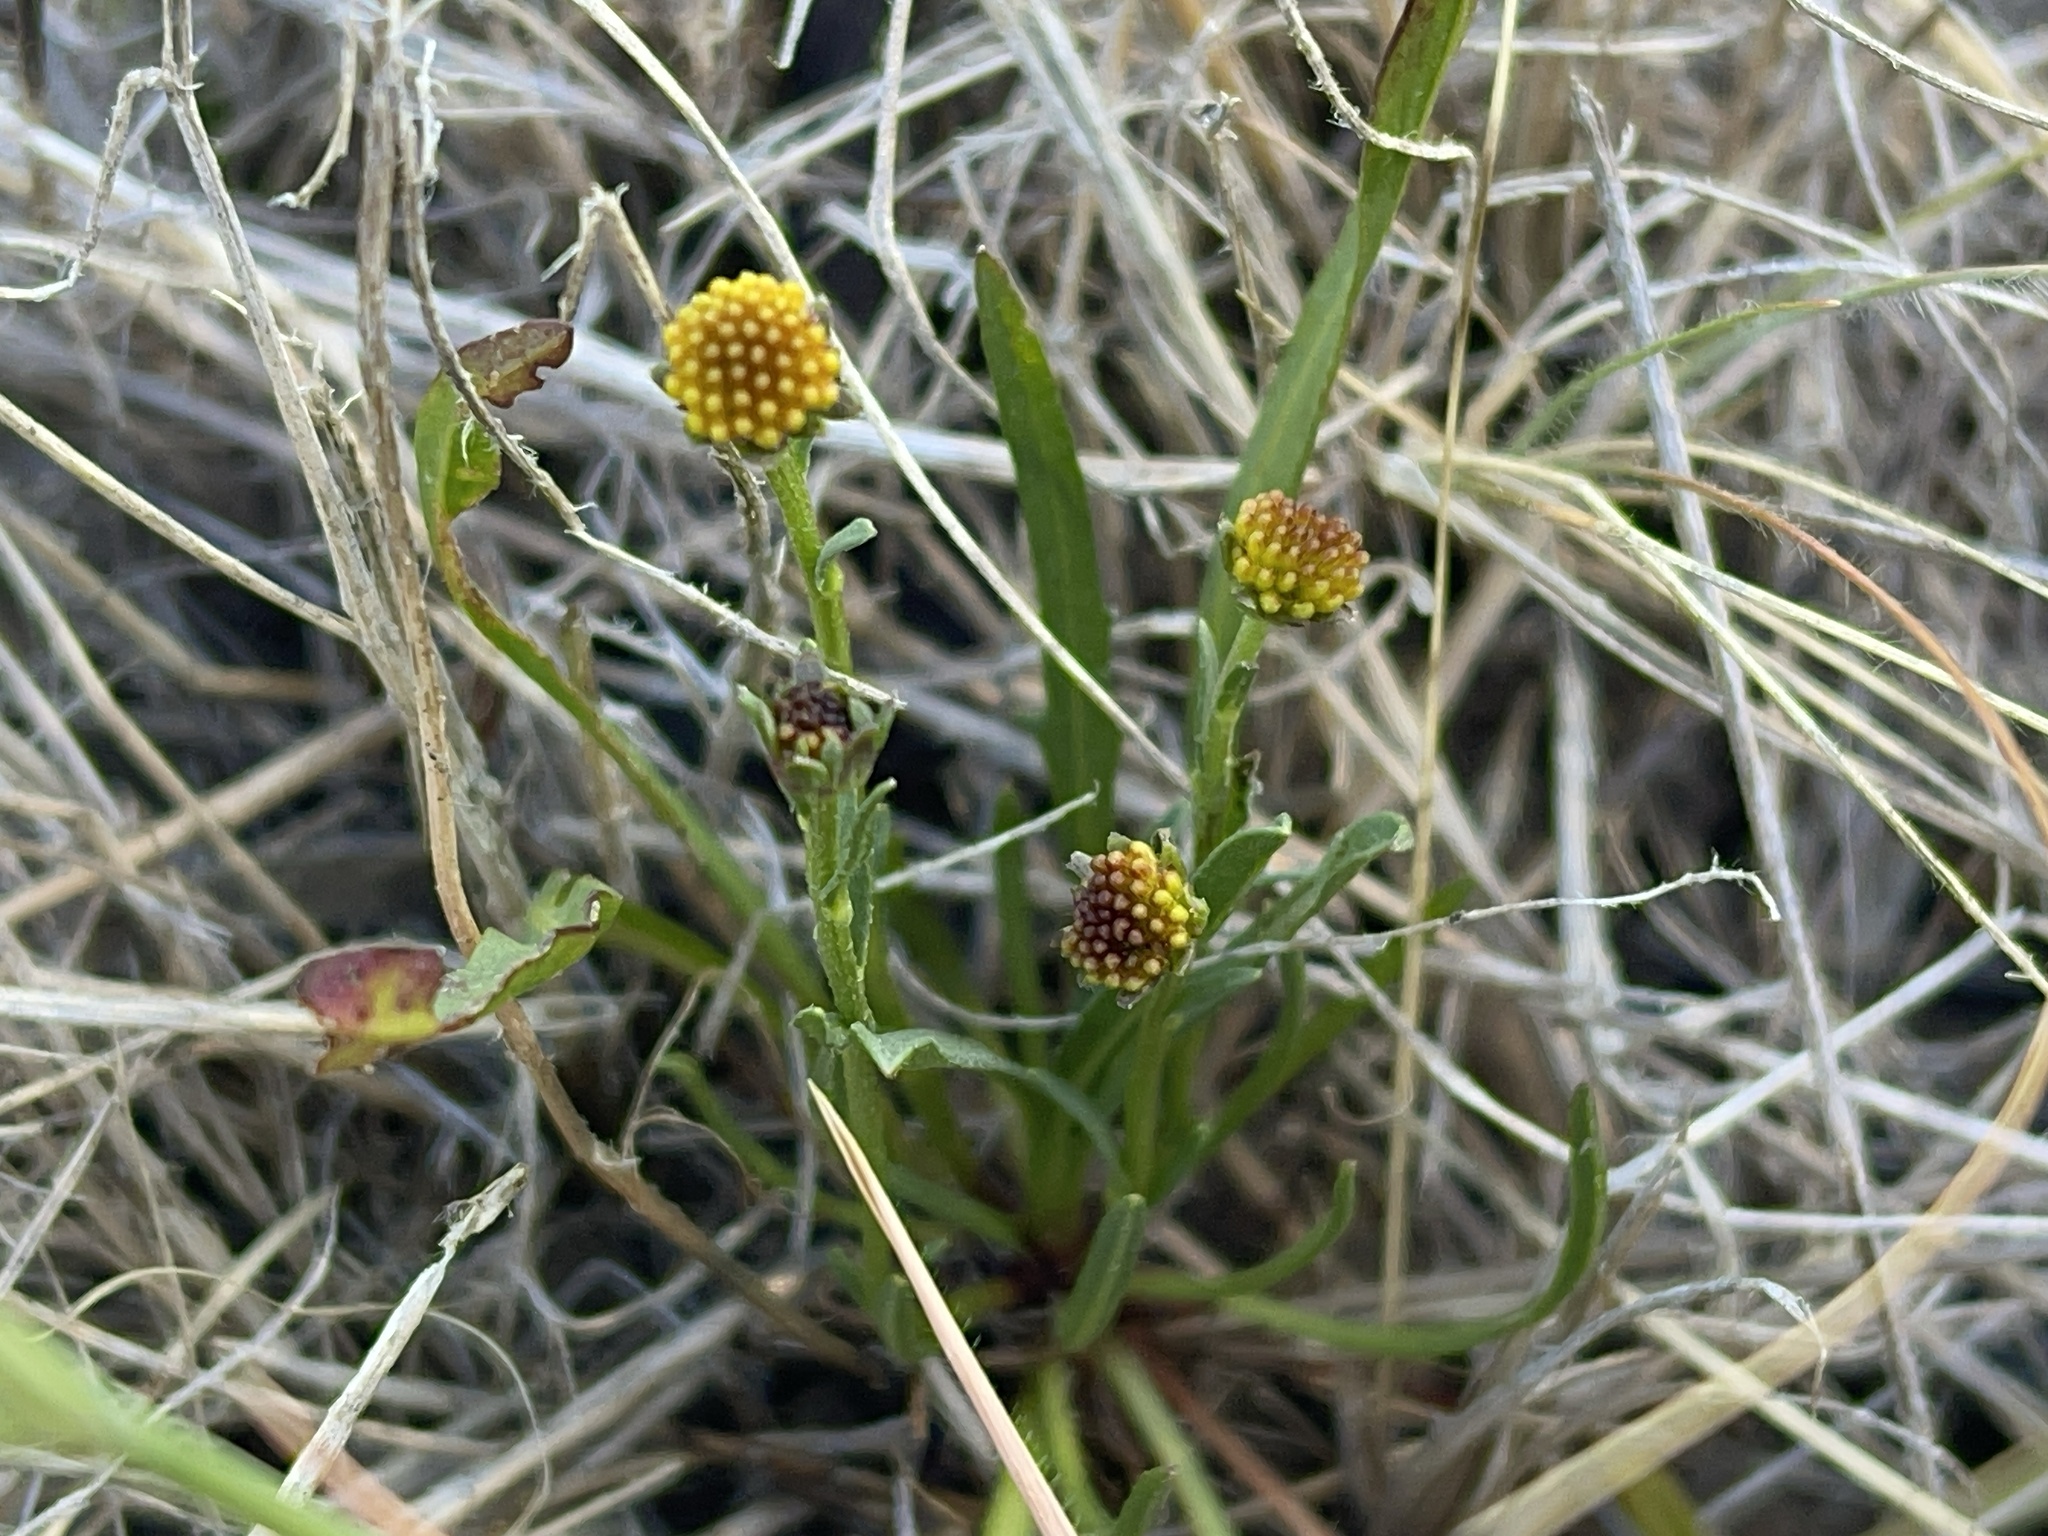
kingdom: Plantae
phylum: Tracheophyta
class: Magnoliopsida
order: Asterales
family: Asteraceae
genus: Calotis
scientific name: Calotis scapigera
